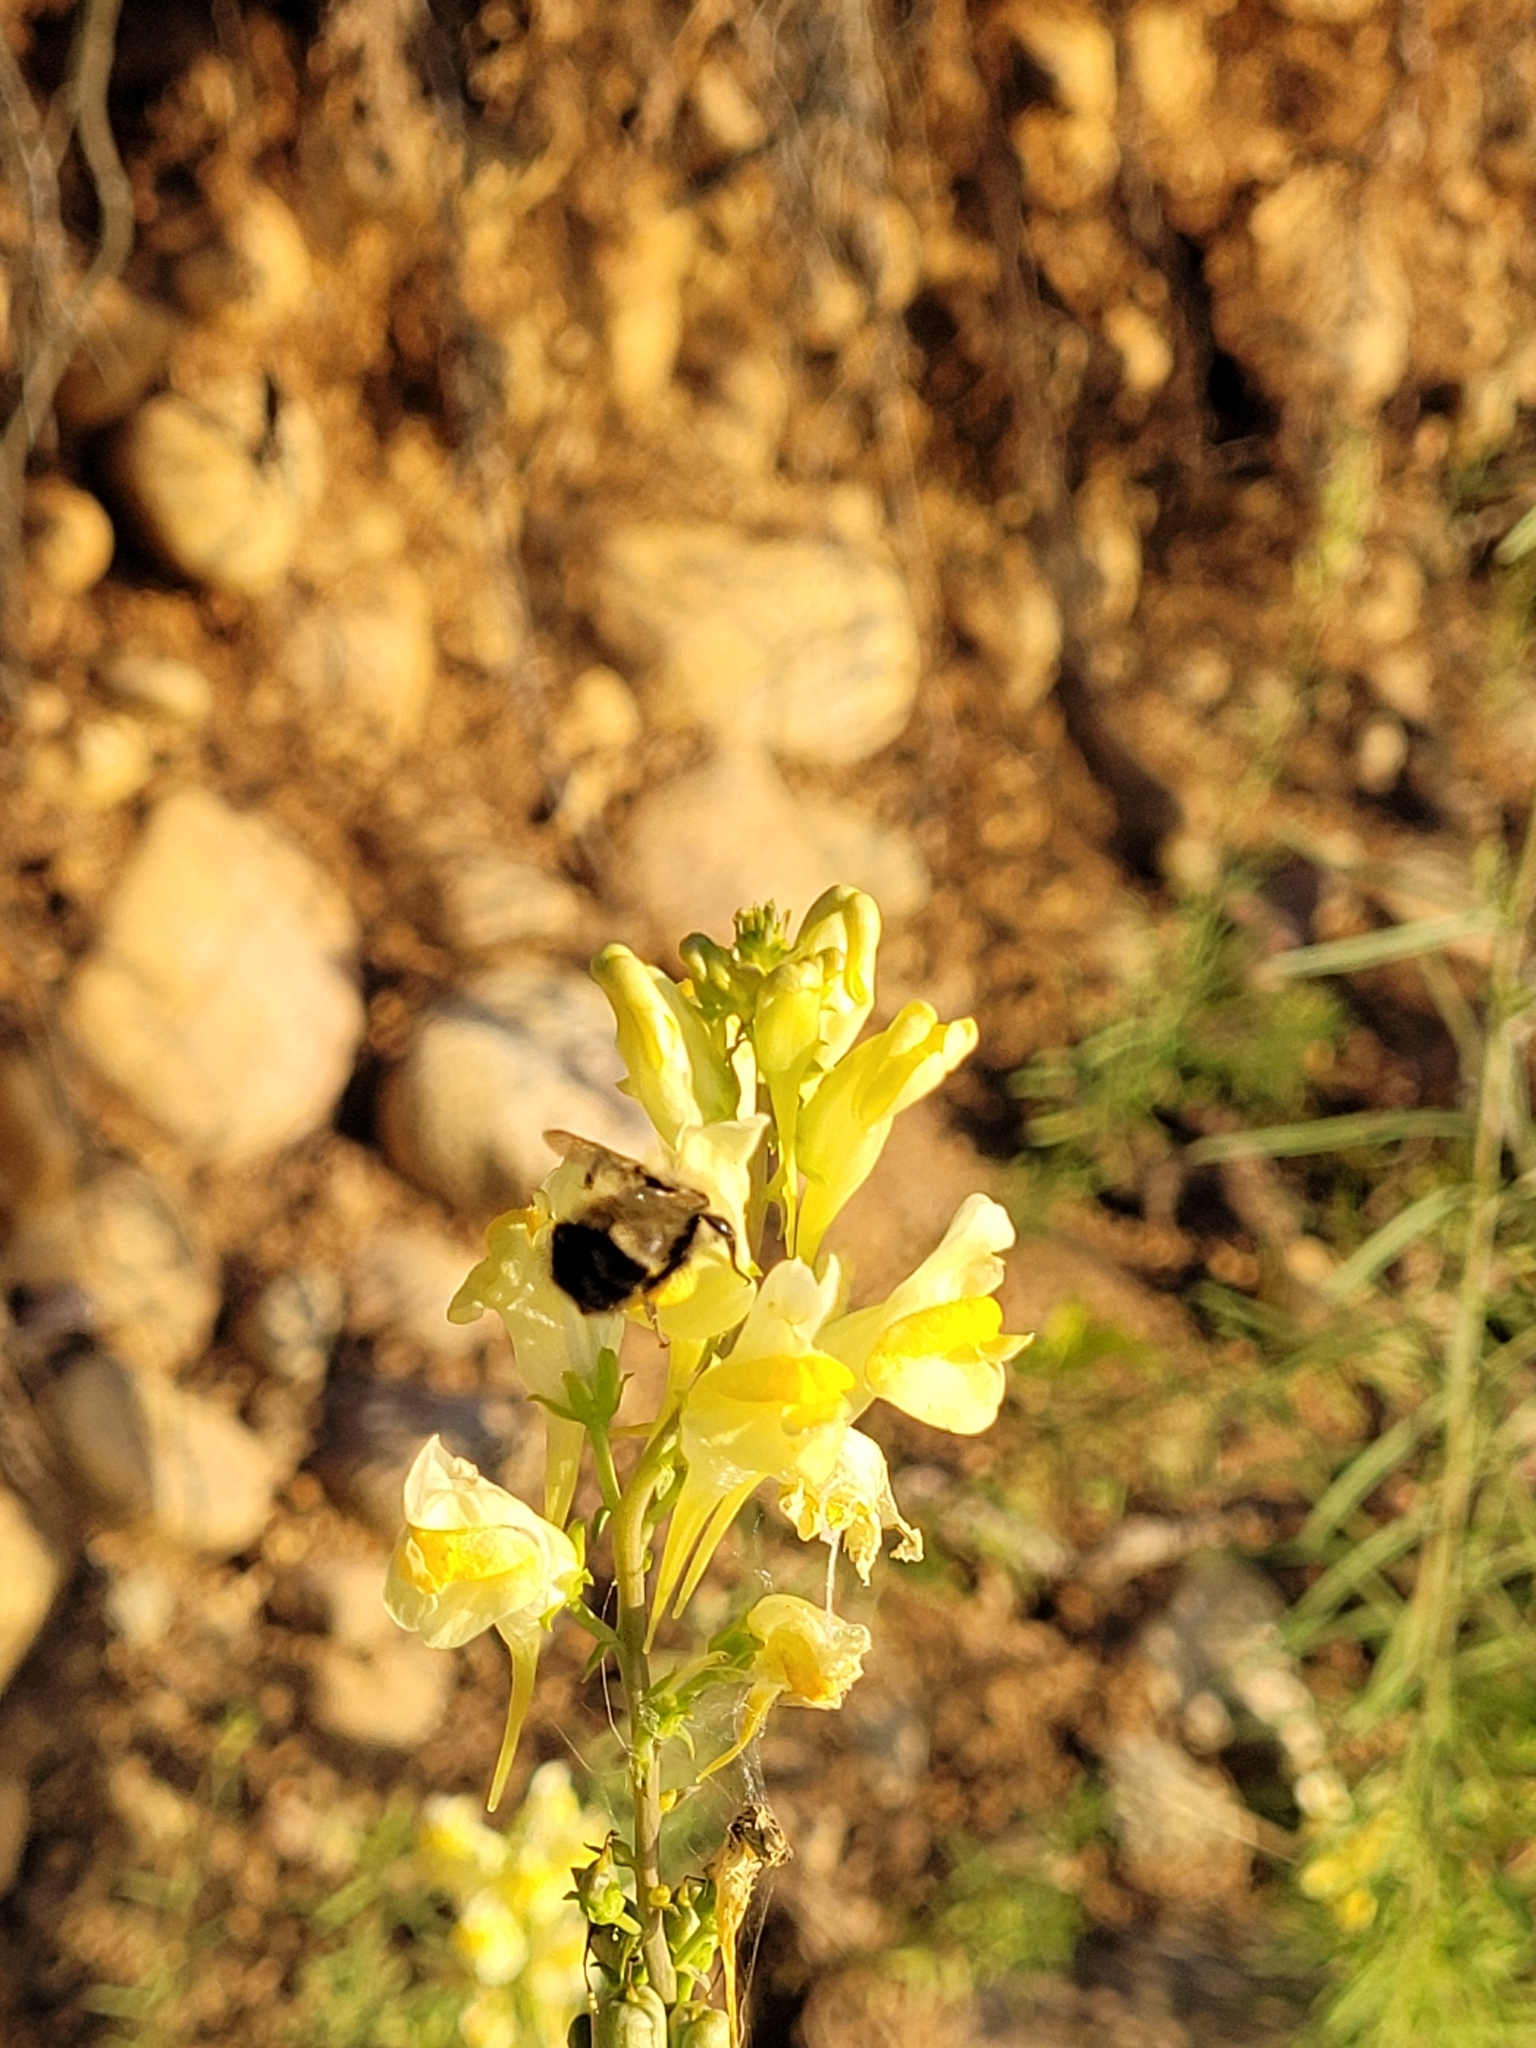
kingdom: Animalia
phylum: Arthropoda
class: Insecta
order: Hymenoptera
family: Apidae
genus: Pyrobombus
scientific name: Pyrobombus
